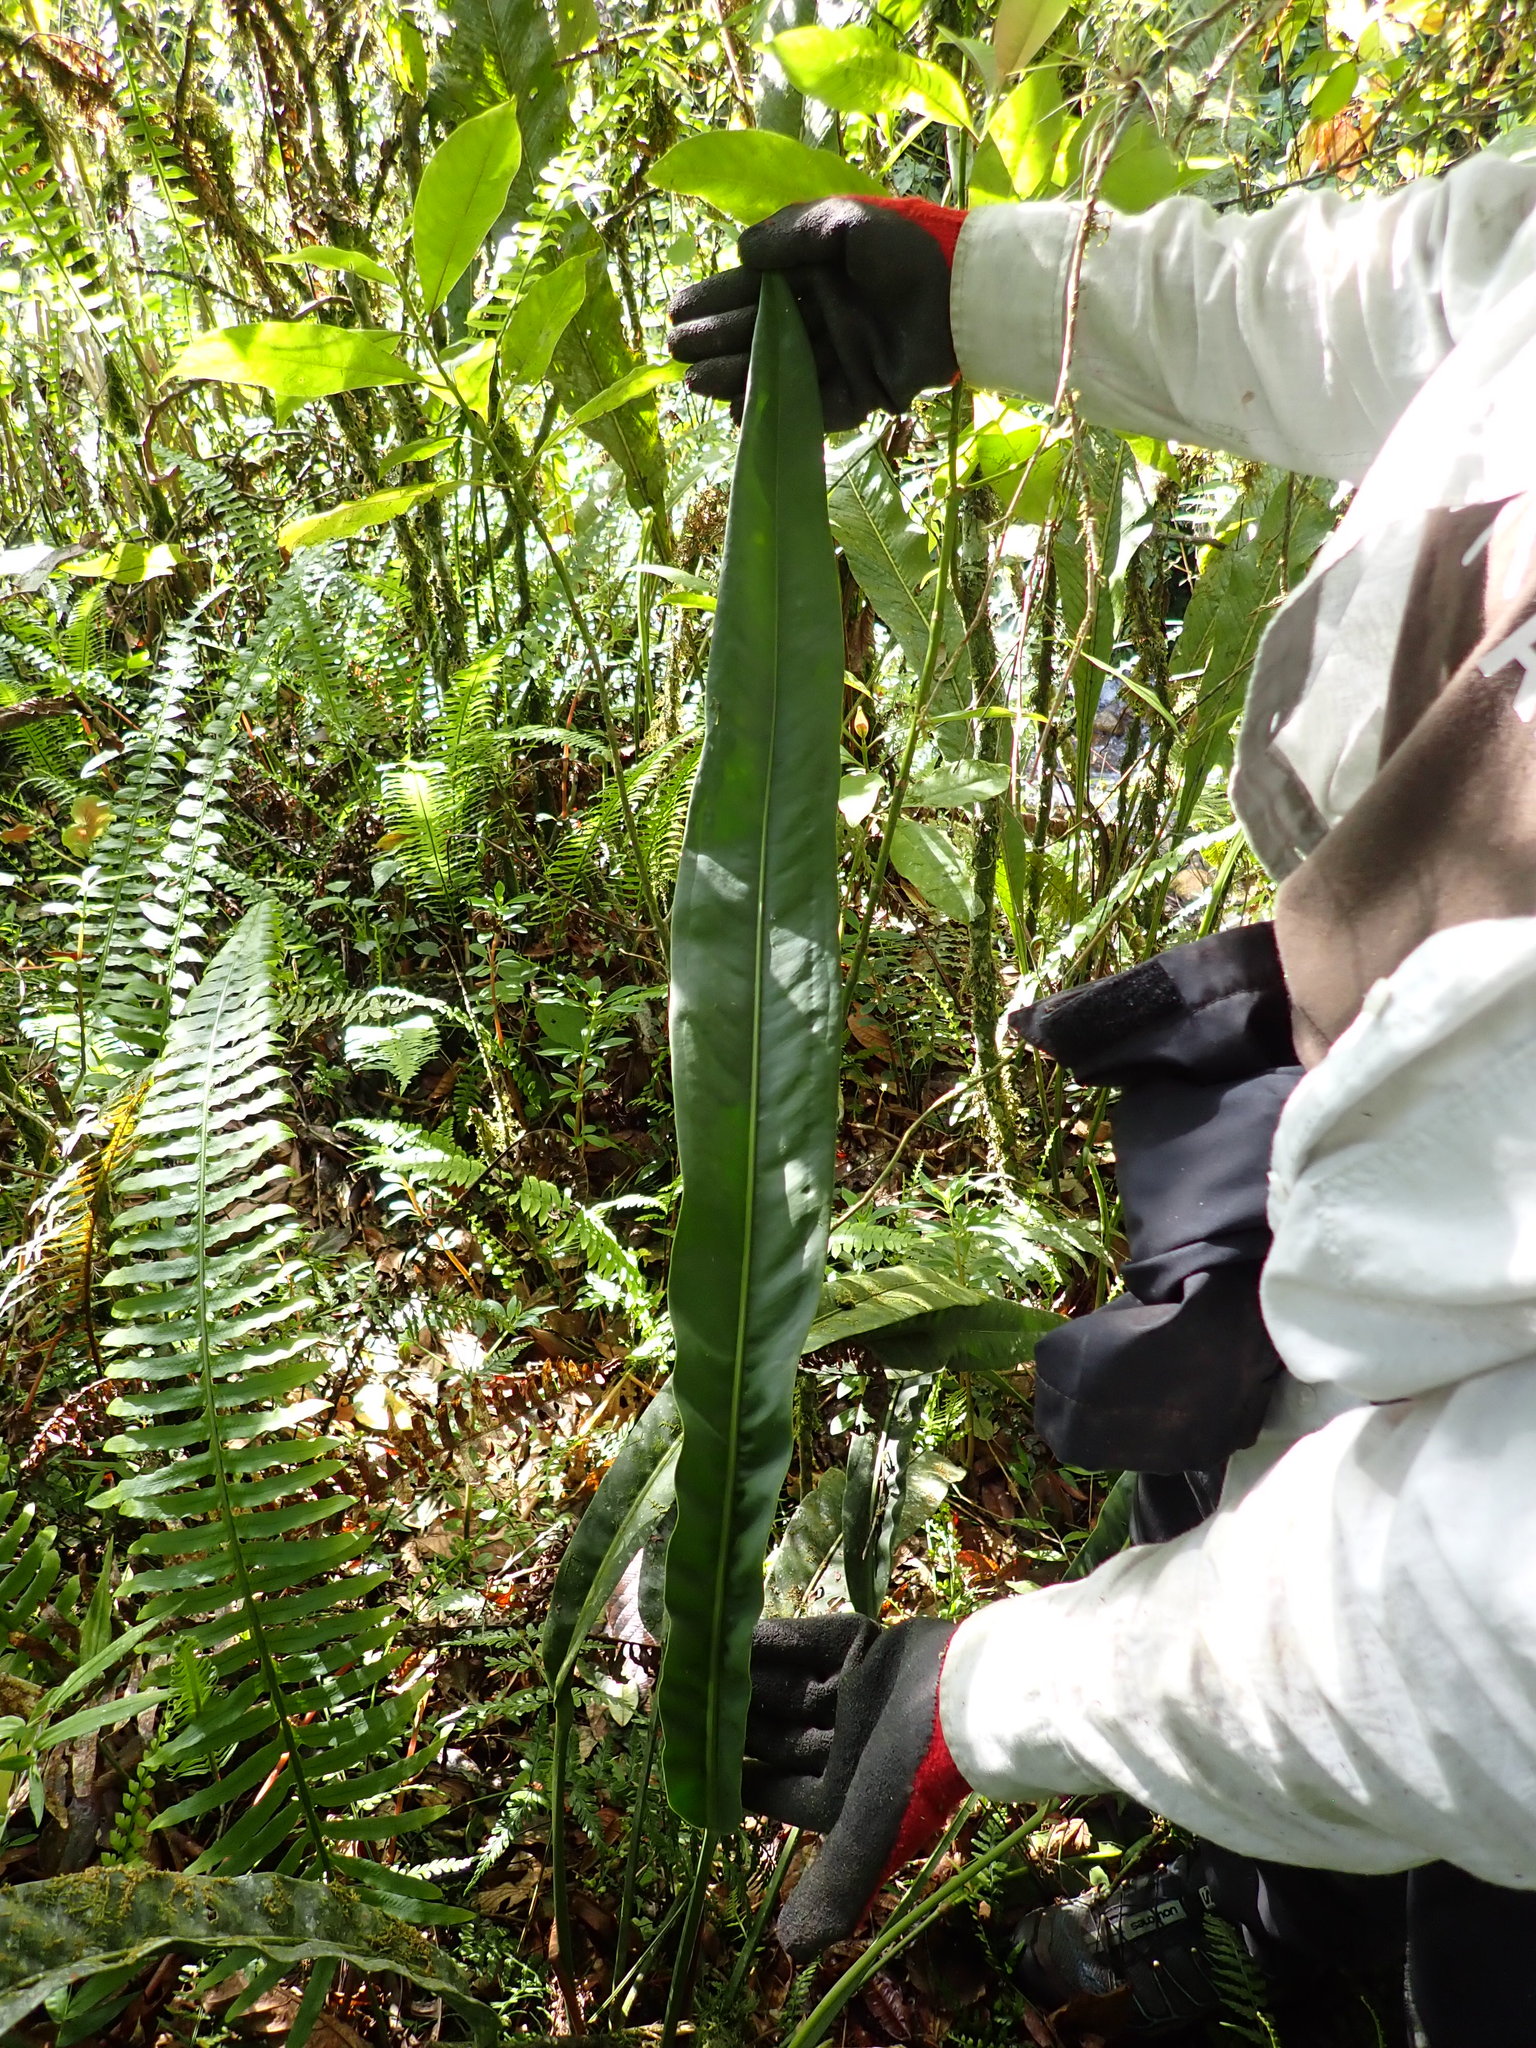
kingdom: Plantae
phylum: Tracheophyta
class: Liliopsida
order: Alismatales
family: Araceae
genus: Anthurium
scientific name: Anthurium ottonis
